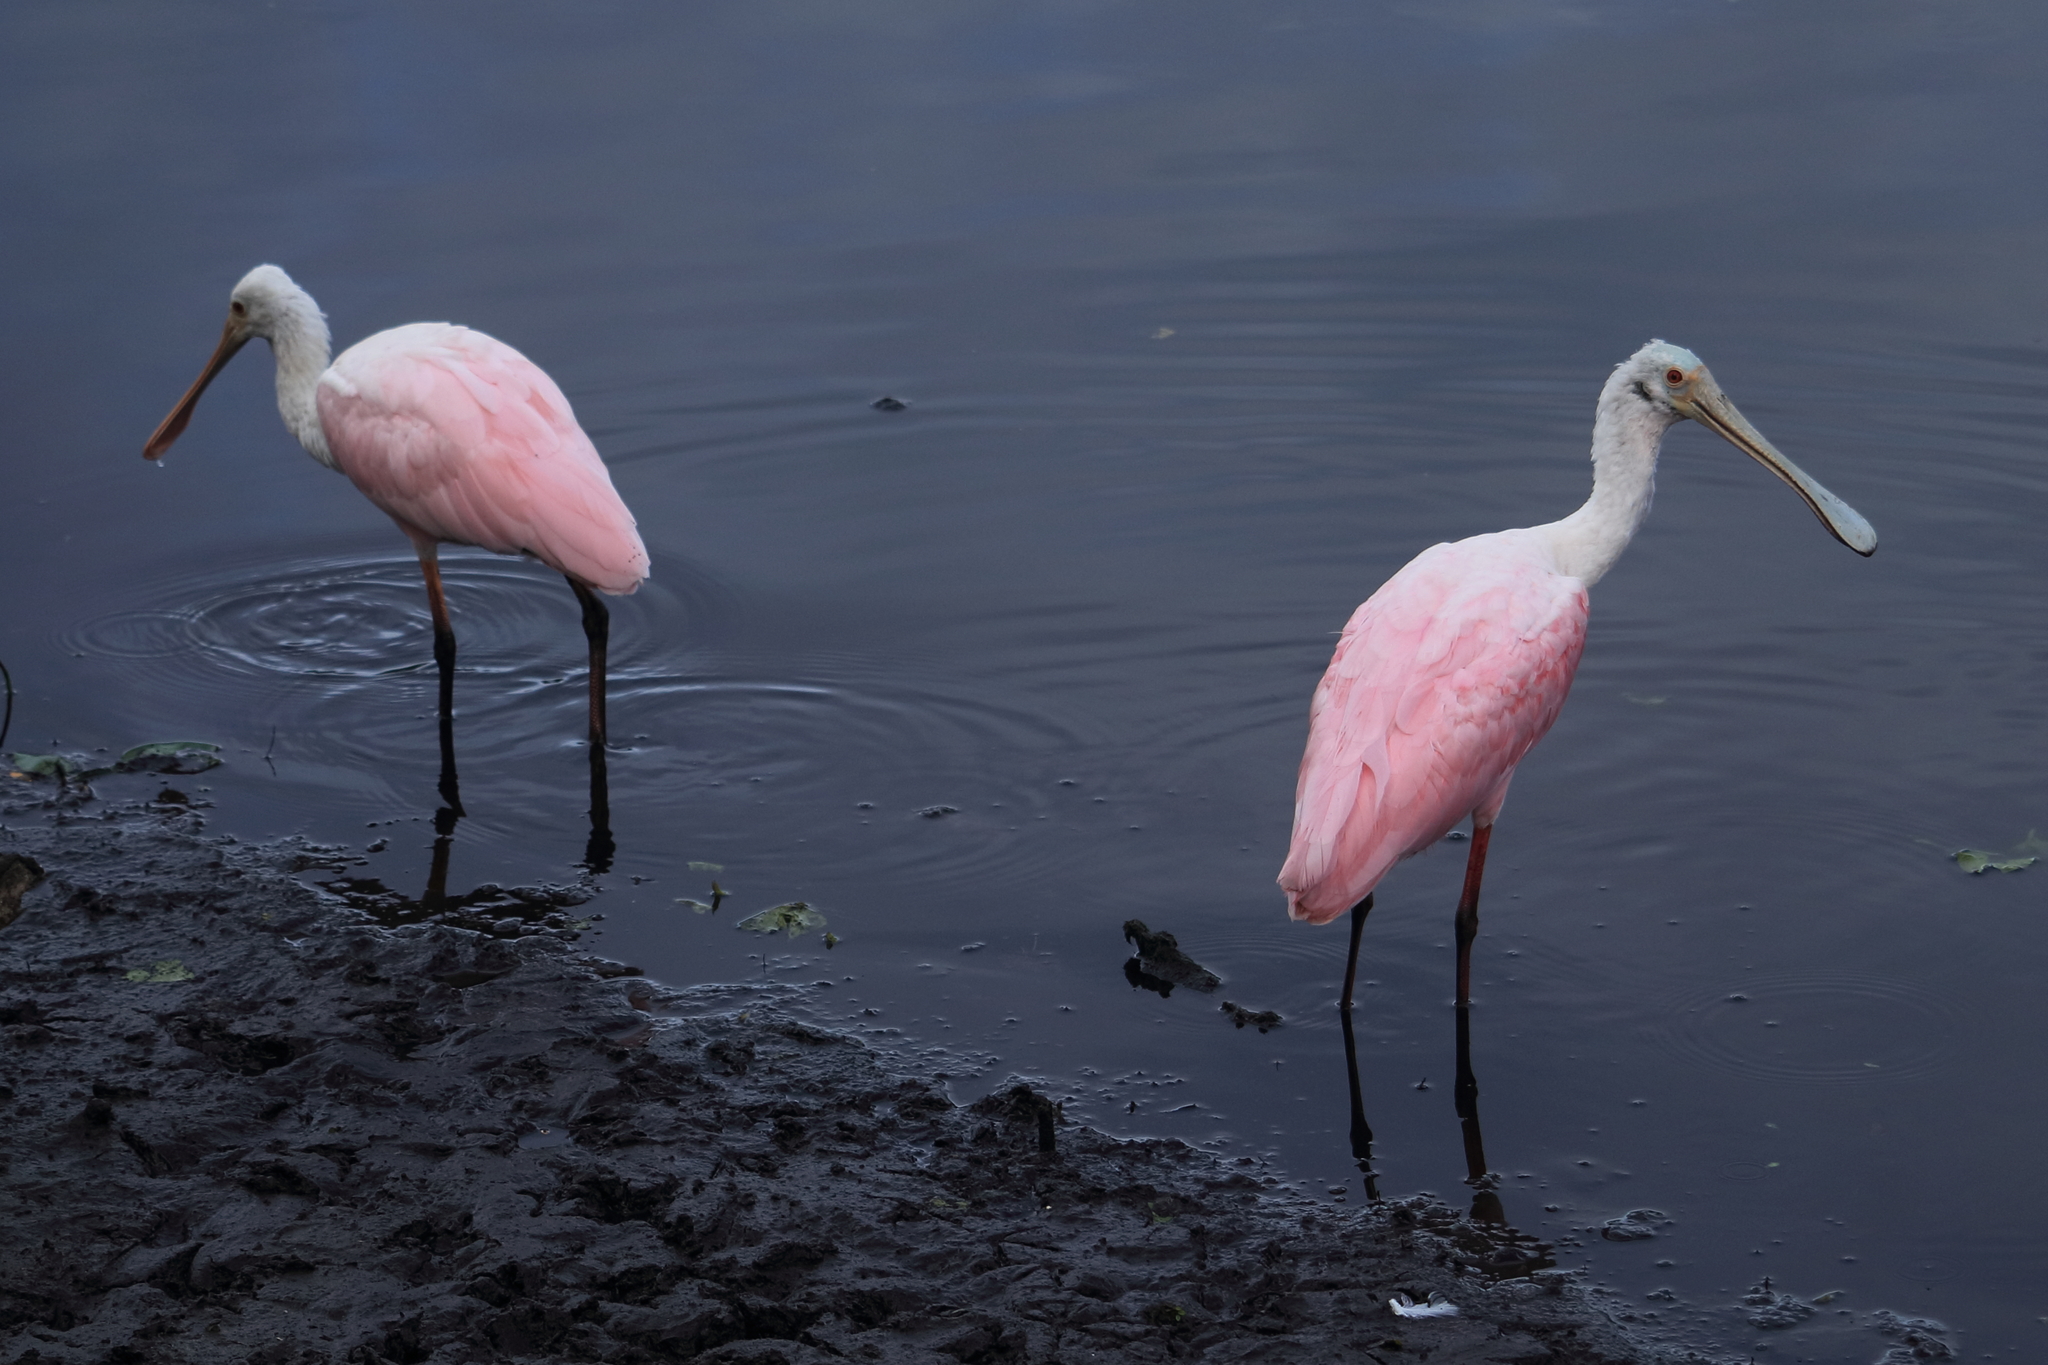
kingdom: Animalia
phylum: Chordata
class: Aves
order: Pelecaniformes
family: Threskiornithidae
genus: Platalea
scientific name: Platalea ajaja
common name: Roseate spoonbill
